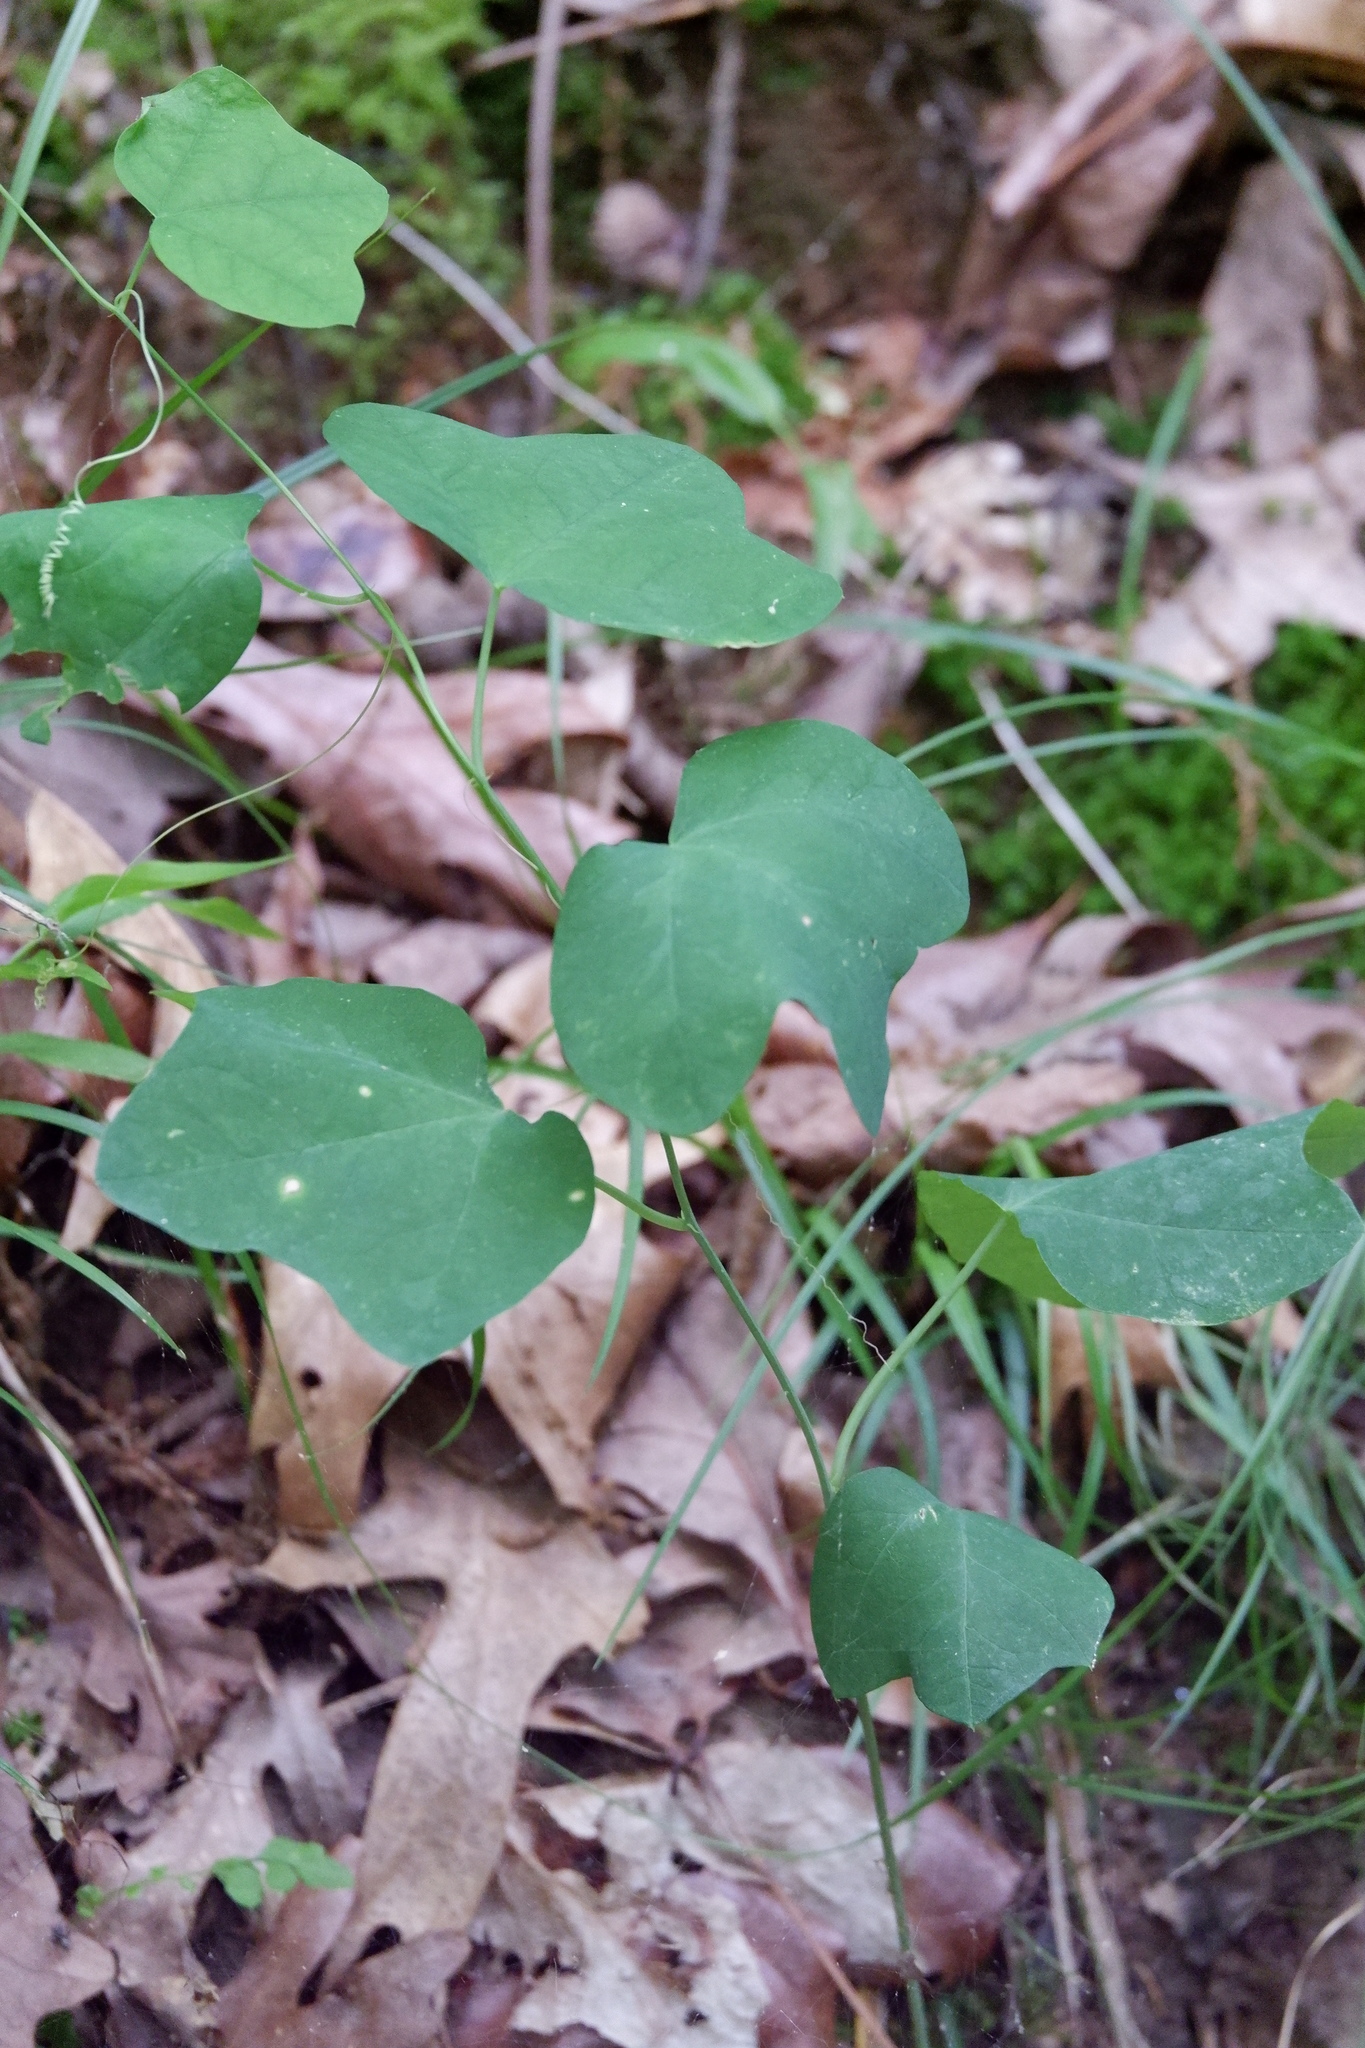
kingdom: Plantae
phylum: Tracheophyta
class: Magnoliopsida
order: Malpighiales
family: Passifloraceae
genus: Passiflora
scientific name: Passiflora lutea
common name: Yellow passionflower
